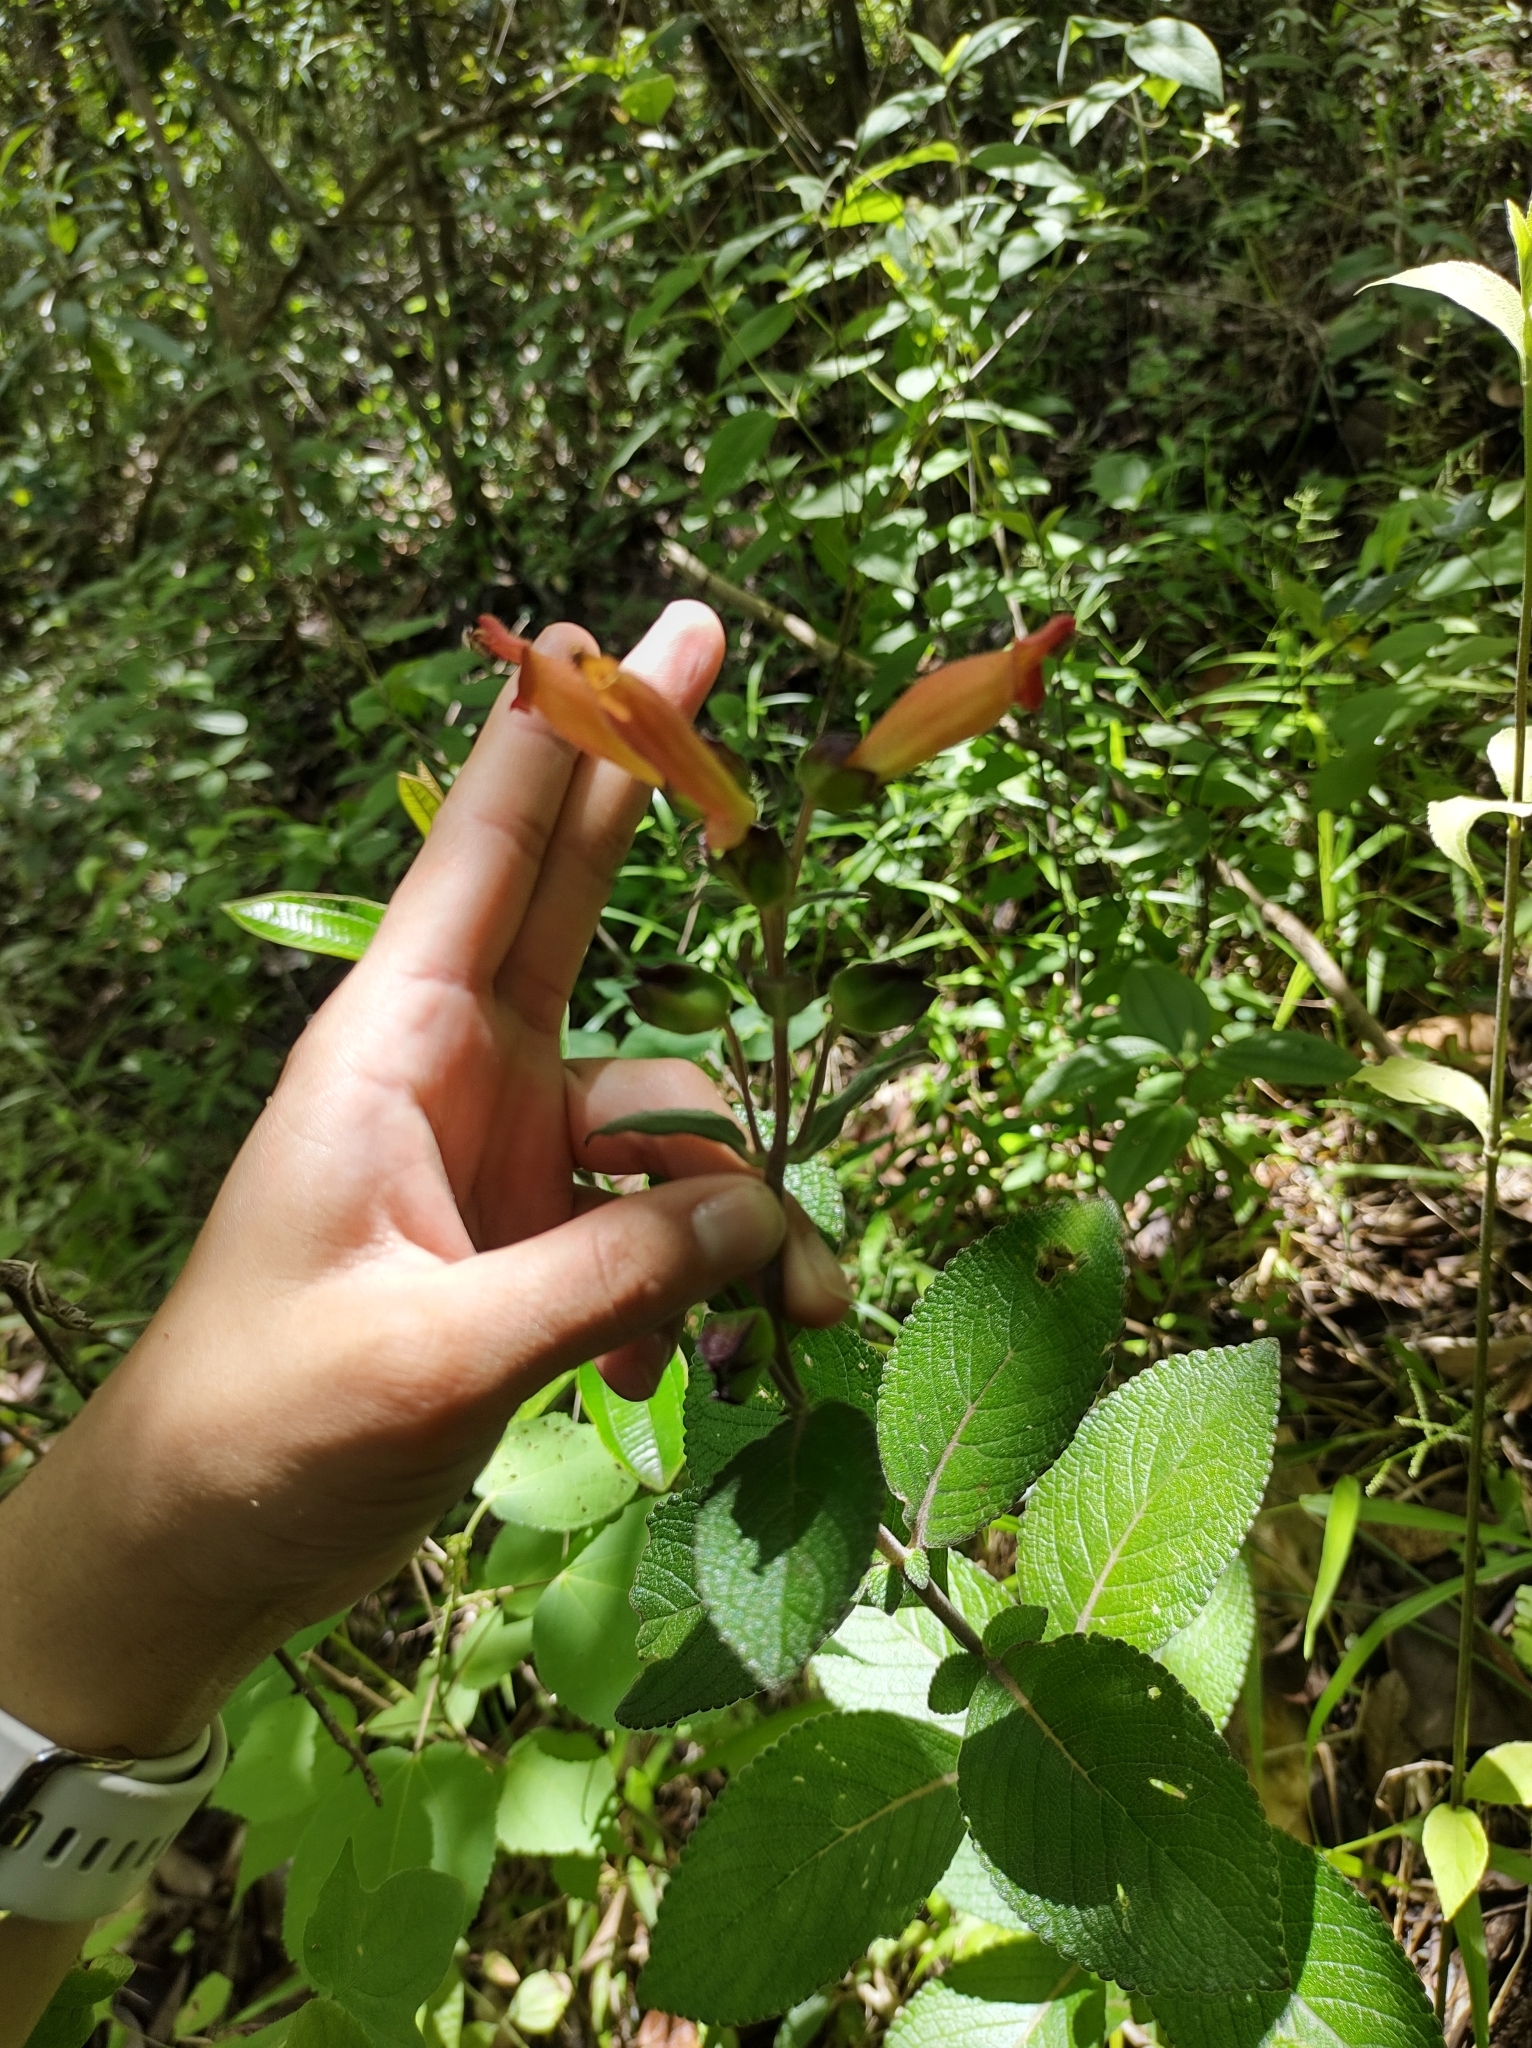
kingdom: Plantae
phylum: Tracheophyta
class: Magnoliopsida
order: Lamiales
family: Gesneriaceae
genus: Sinningia
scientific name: Sinningia incarnata
